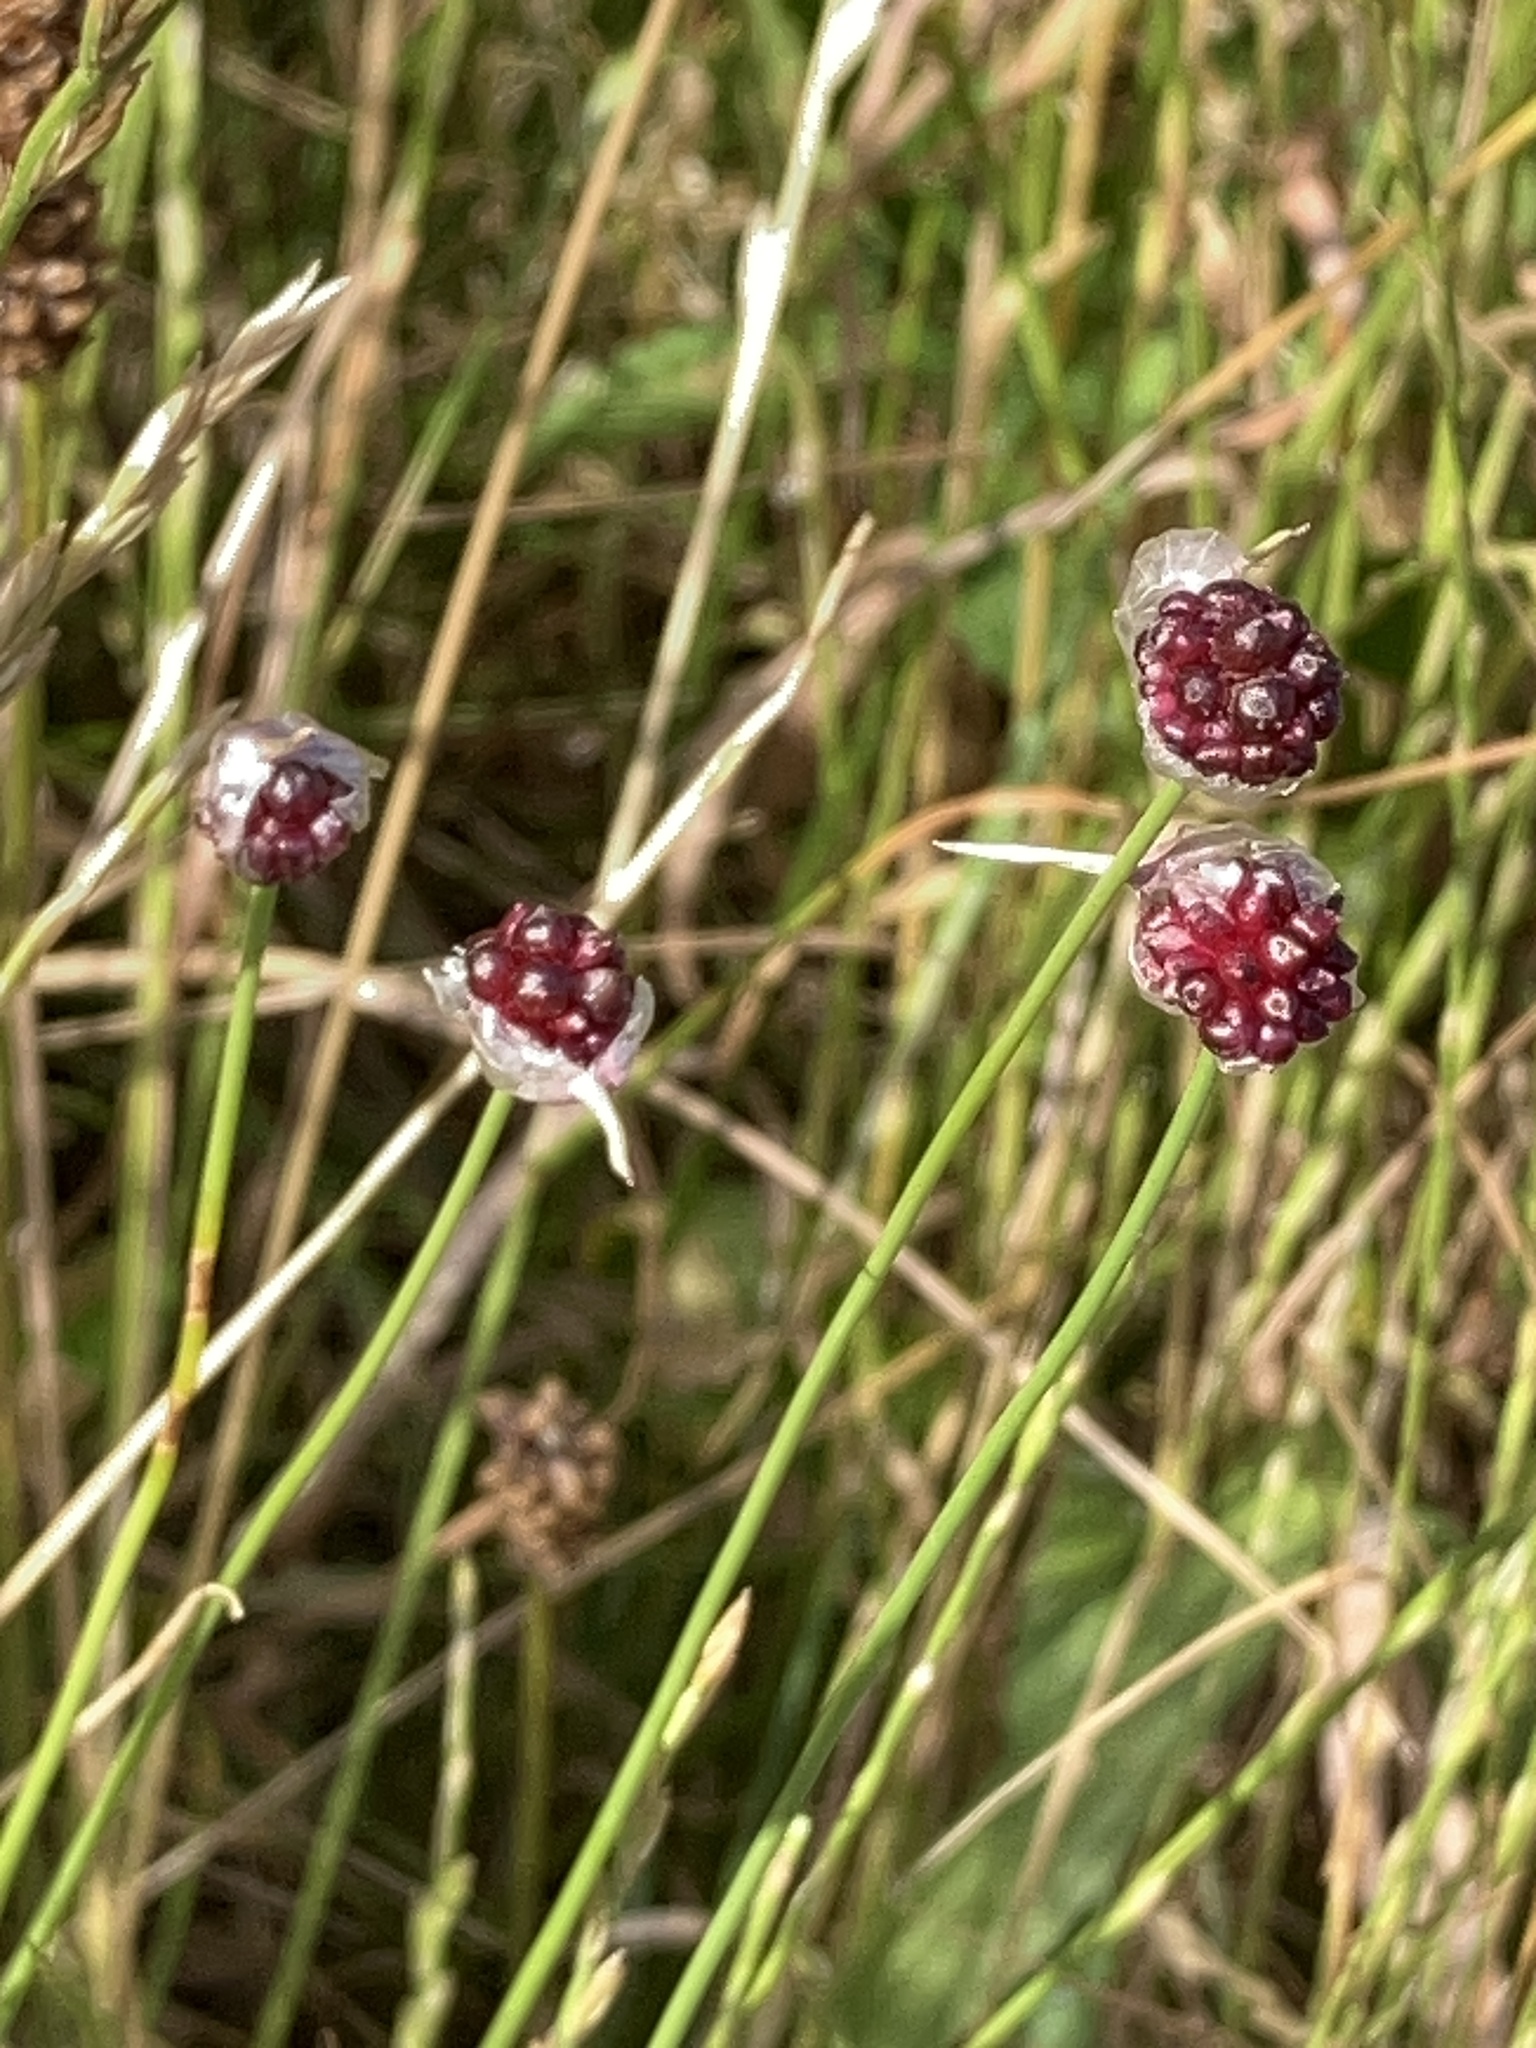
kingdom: Plantae
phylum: Tracheophyta
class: Liliopsida
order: Asparagales
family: Amaryllidaceae
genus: Allium
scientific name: Allium vineale
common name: Crow garlic
